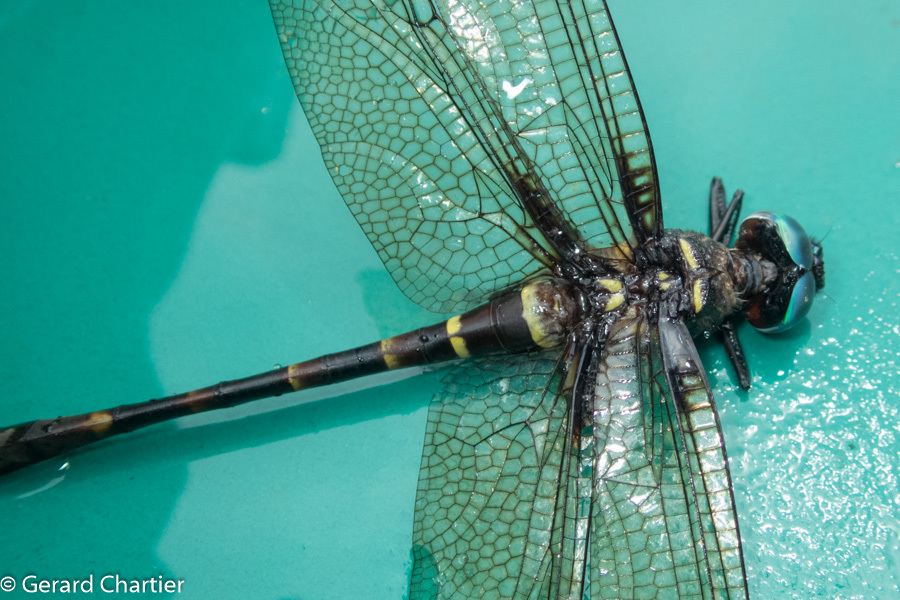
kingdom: Animalia
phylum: Arthropoda
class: Insecta
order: Odonata
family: Macromiidae
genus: Epophthalmia
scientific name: Epophthalmia vittigera
